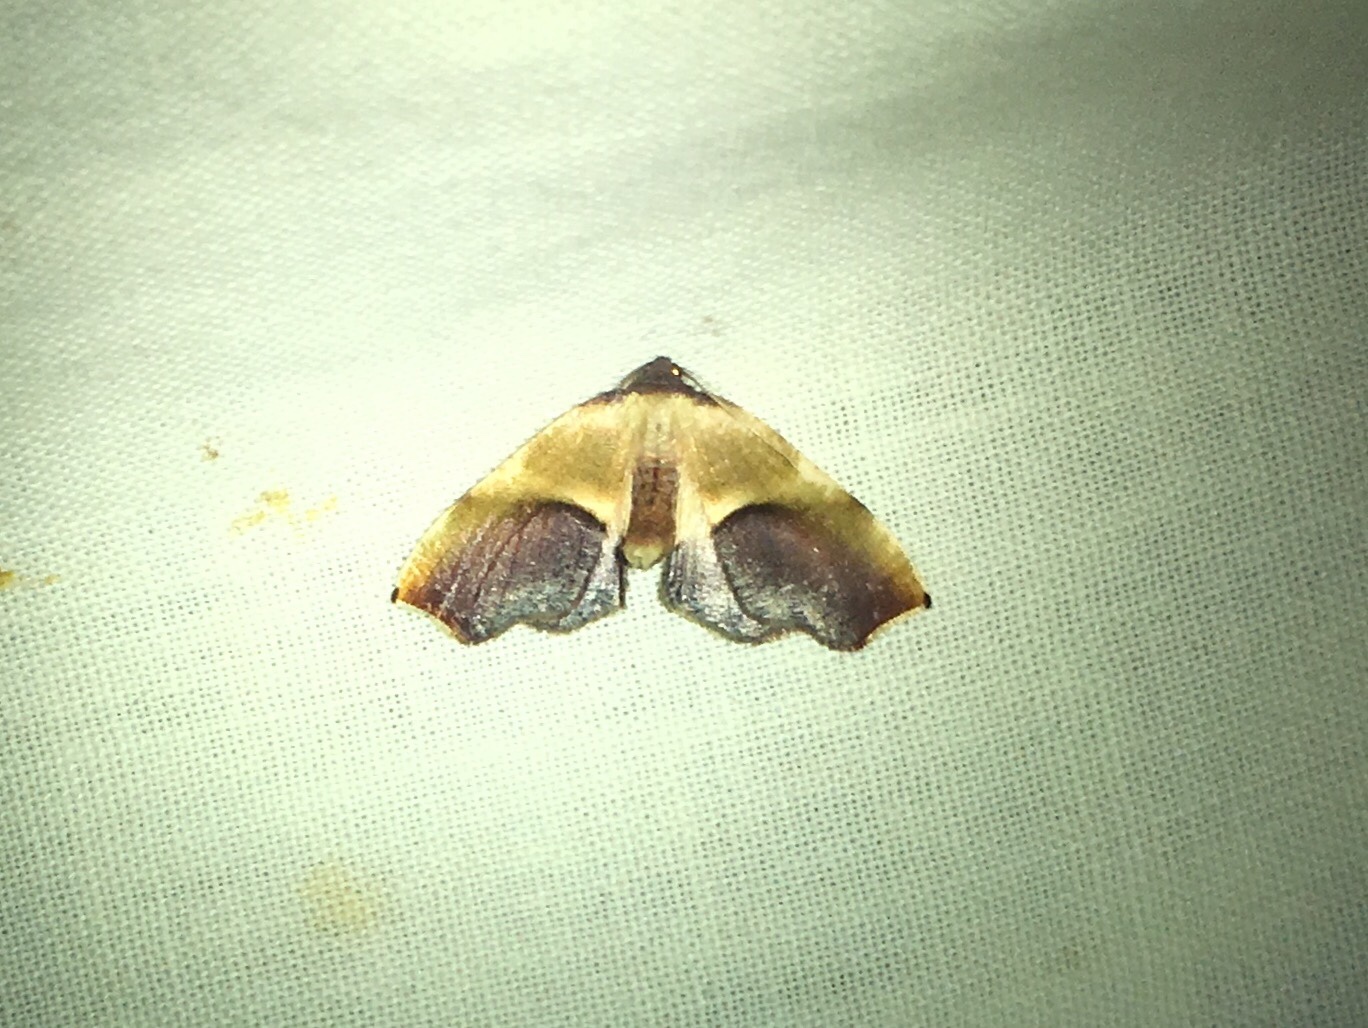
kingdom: Animalia
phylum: Arthropoda
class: Insecta
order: Lepidoptera
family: Geometridae
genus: Plagodis
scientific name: Plagodis kuetzingi
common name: Purple plagodis
